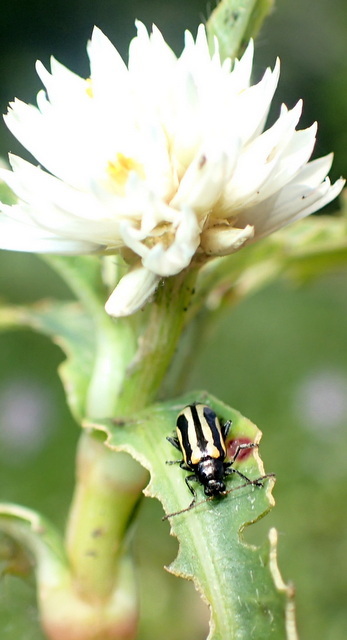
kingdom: Animalia
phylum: Arthropoda
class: Insecta
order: Coleoptera
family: Chrysomelidae
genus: Agasicles
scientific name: Agasicles hygrophila
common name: Alligatorweed flea beetle
